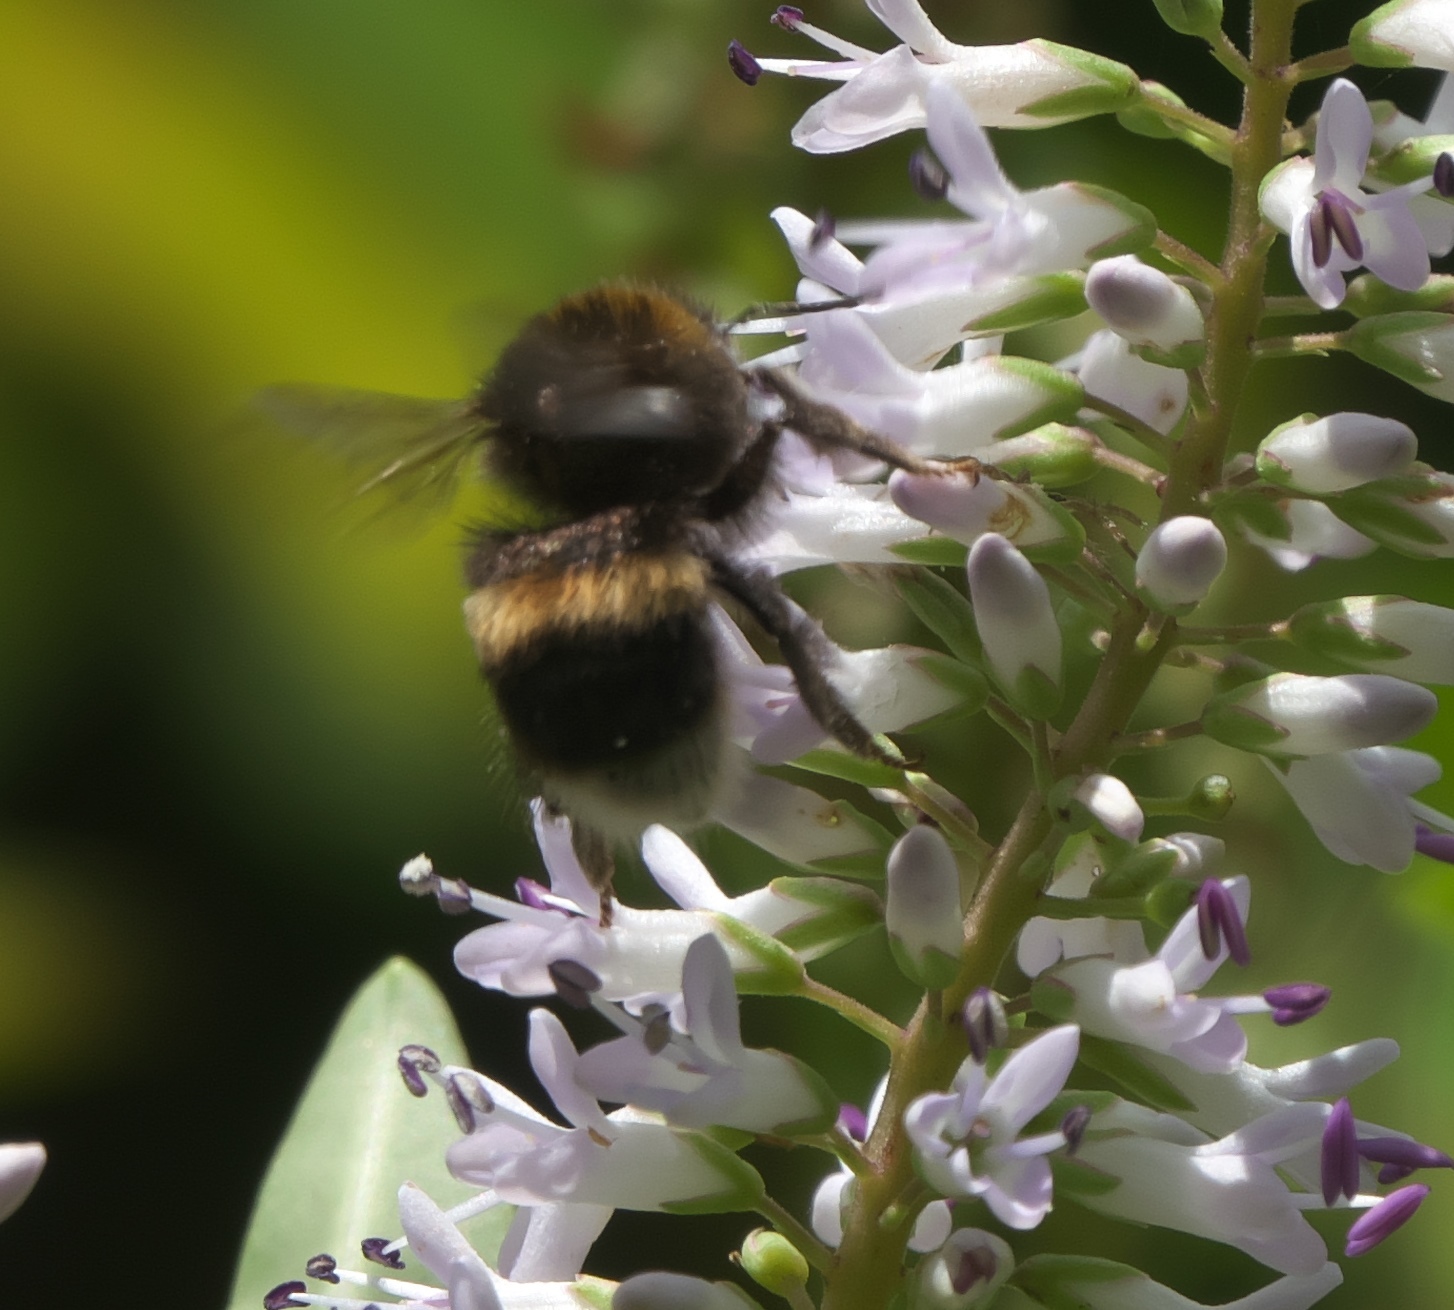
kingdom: Animalia
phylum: Arthropoda
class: Insecta
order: Hymenoptera
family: Apidae
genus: Bombus
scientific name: Bombus terrestris
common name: Buff-tailed bumblebee
